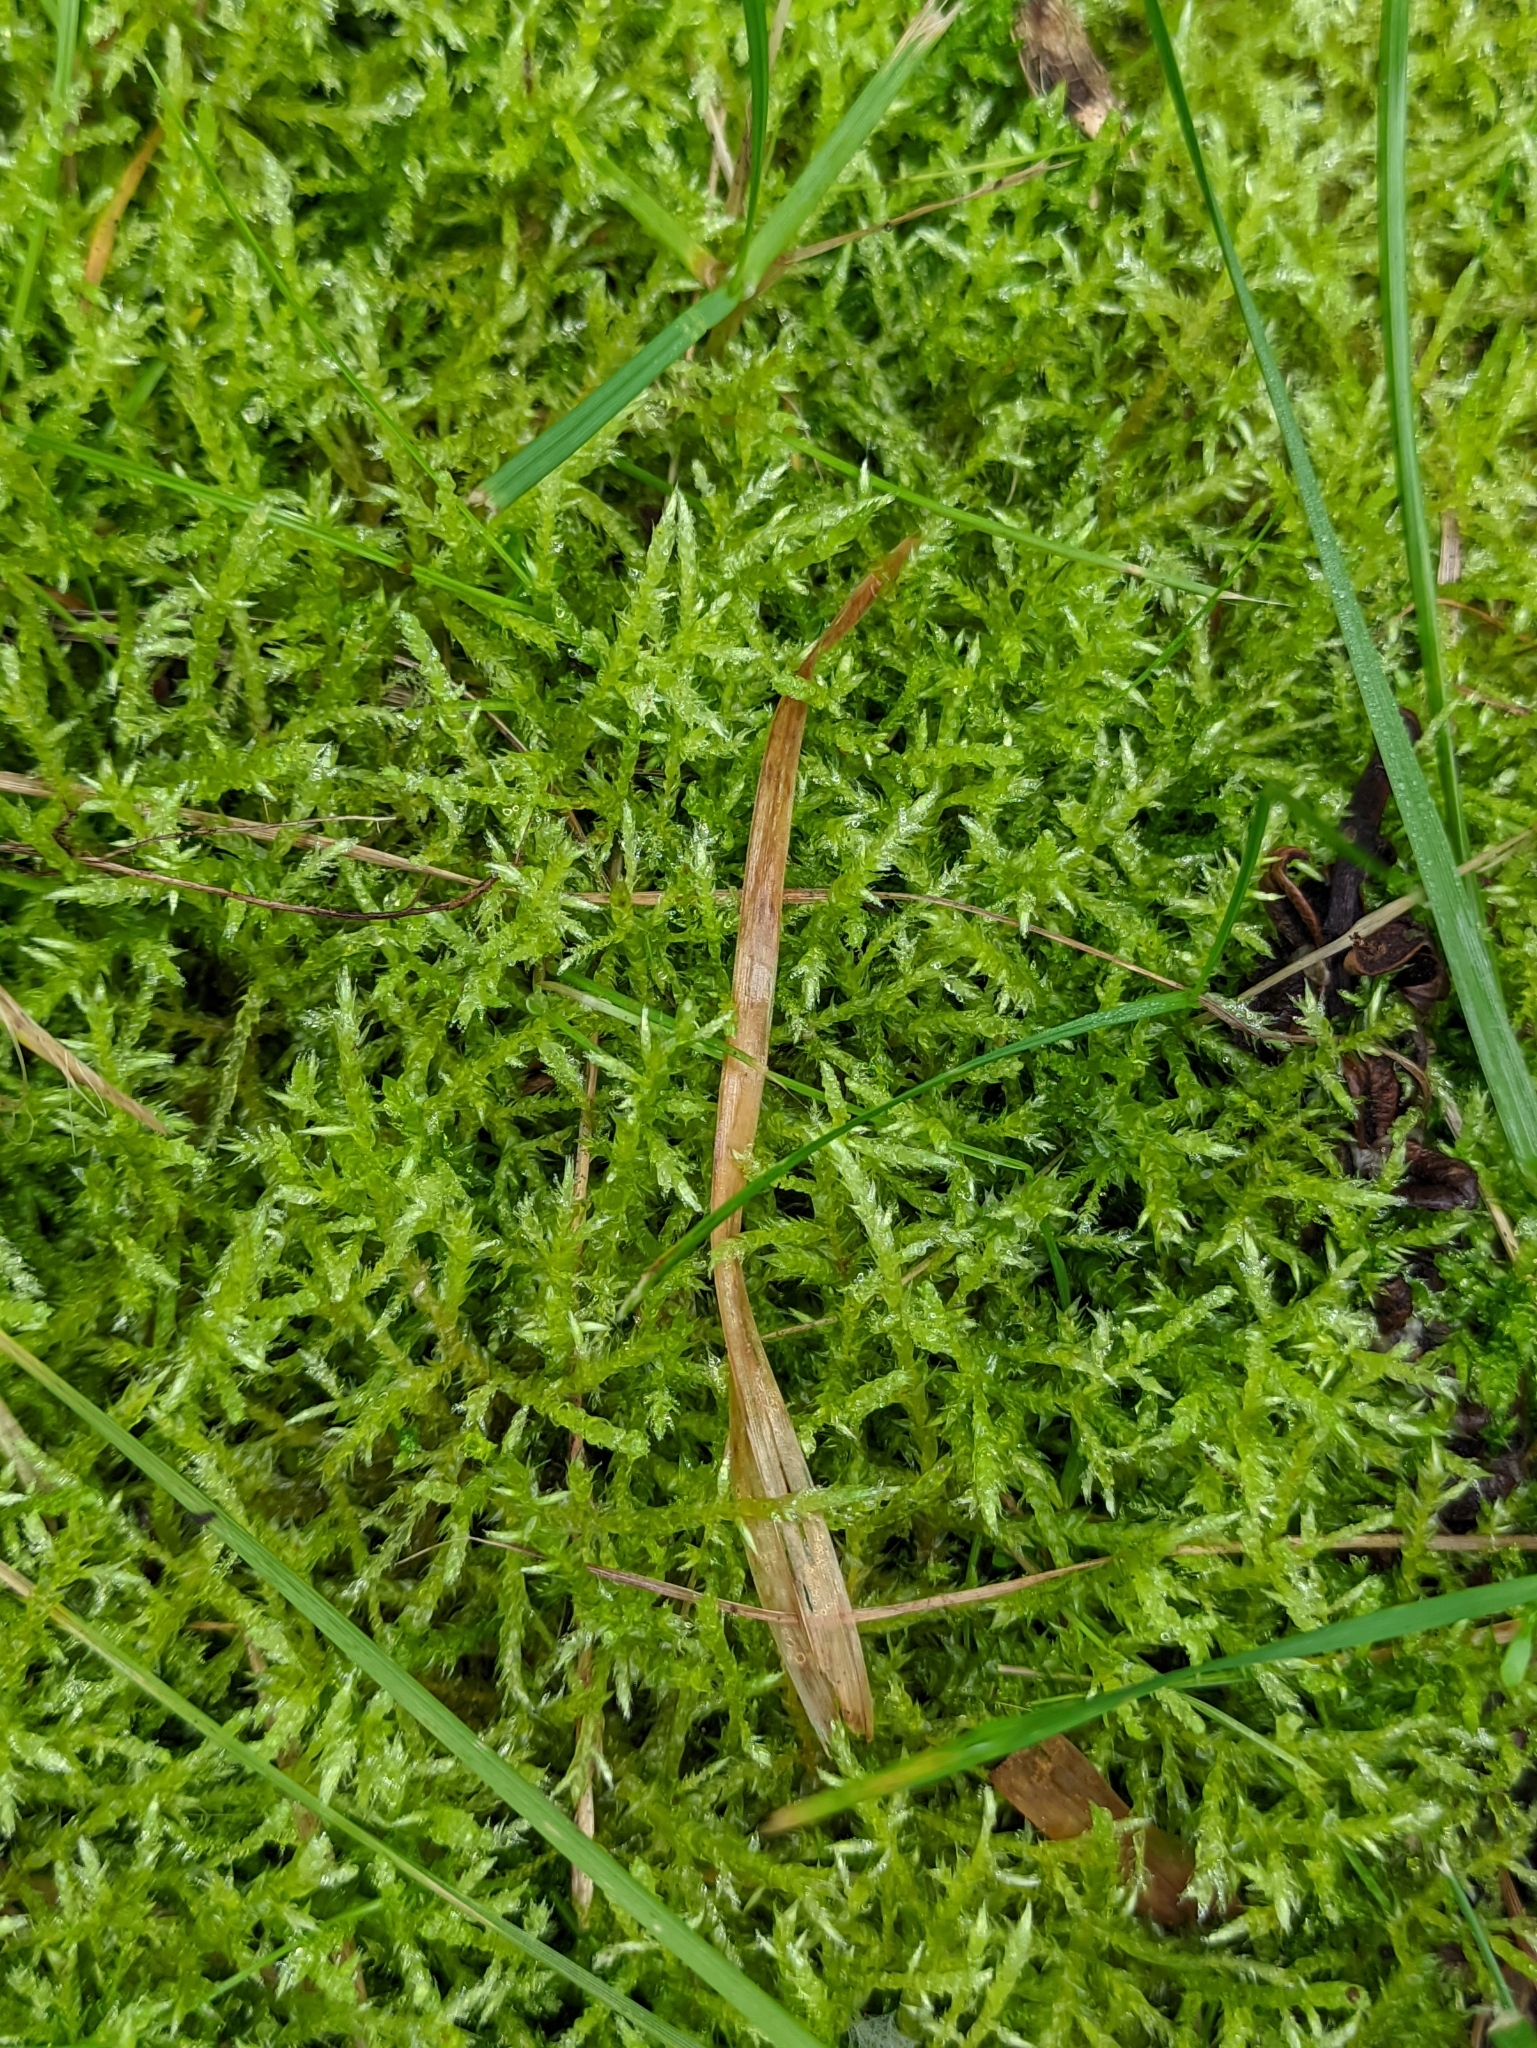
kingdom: Plantae
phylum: Bryophyta
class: Bryopsida
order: Hypnales
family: Brachytheciaceae
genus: Cirriphyllum
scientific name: Cirriphyllum piliferum
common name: Hair-pointed moss
